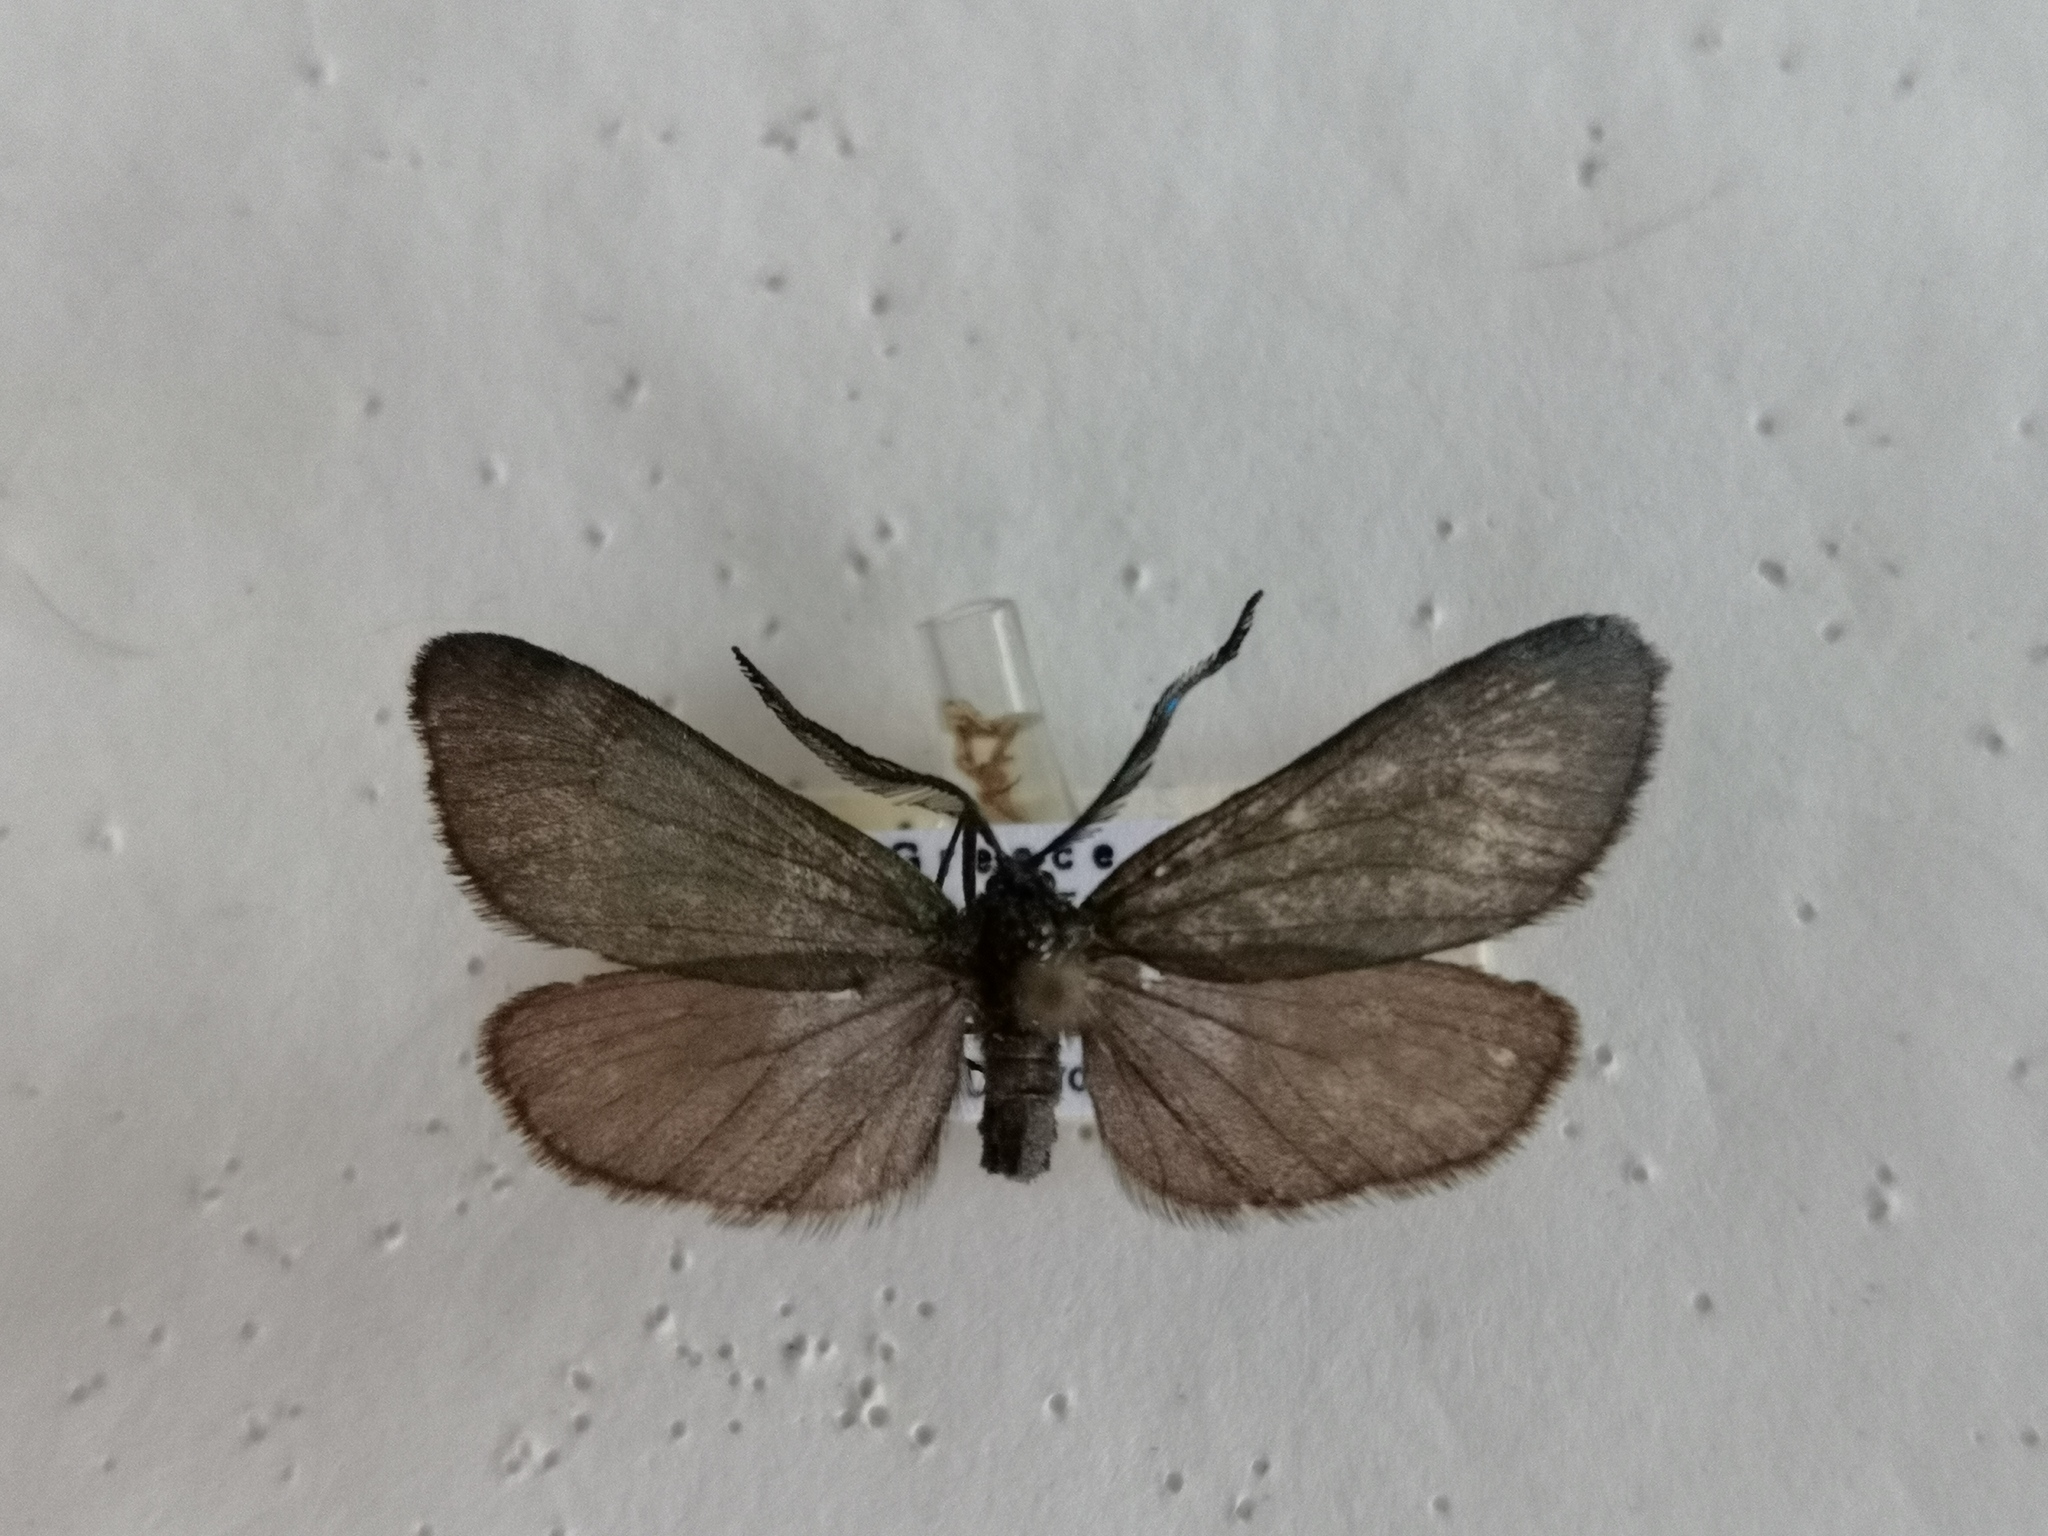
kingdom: Animalia
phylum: Arthropoda
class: Insecta
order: Lepidoptera
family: Zygaenidae
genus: Jordanita
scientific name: Jordanita subsolana
